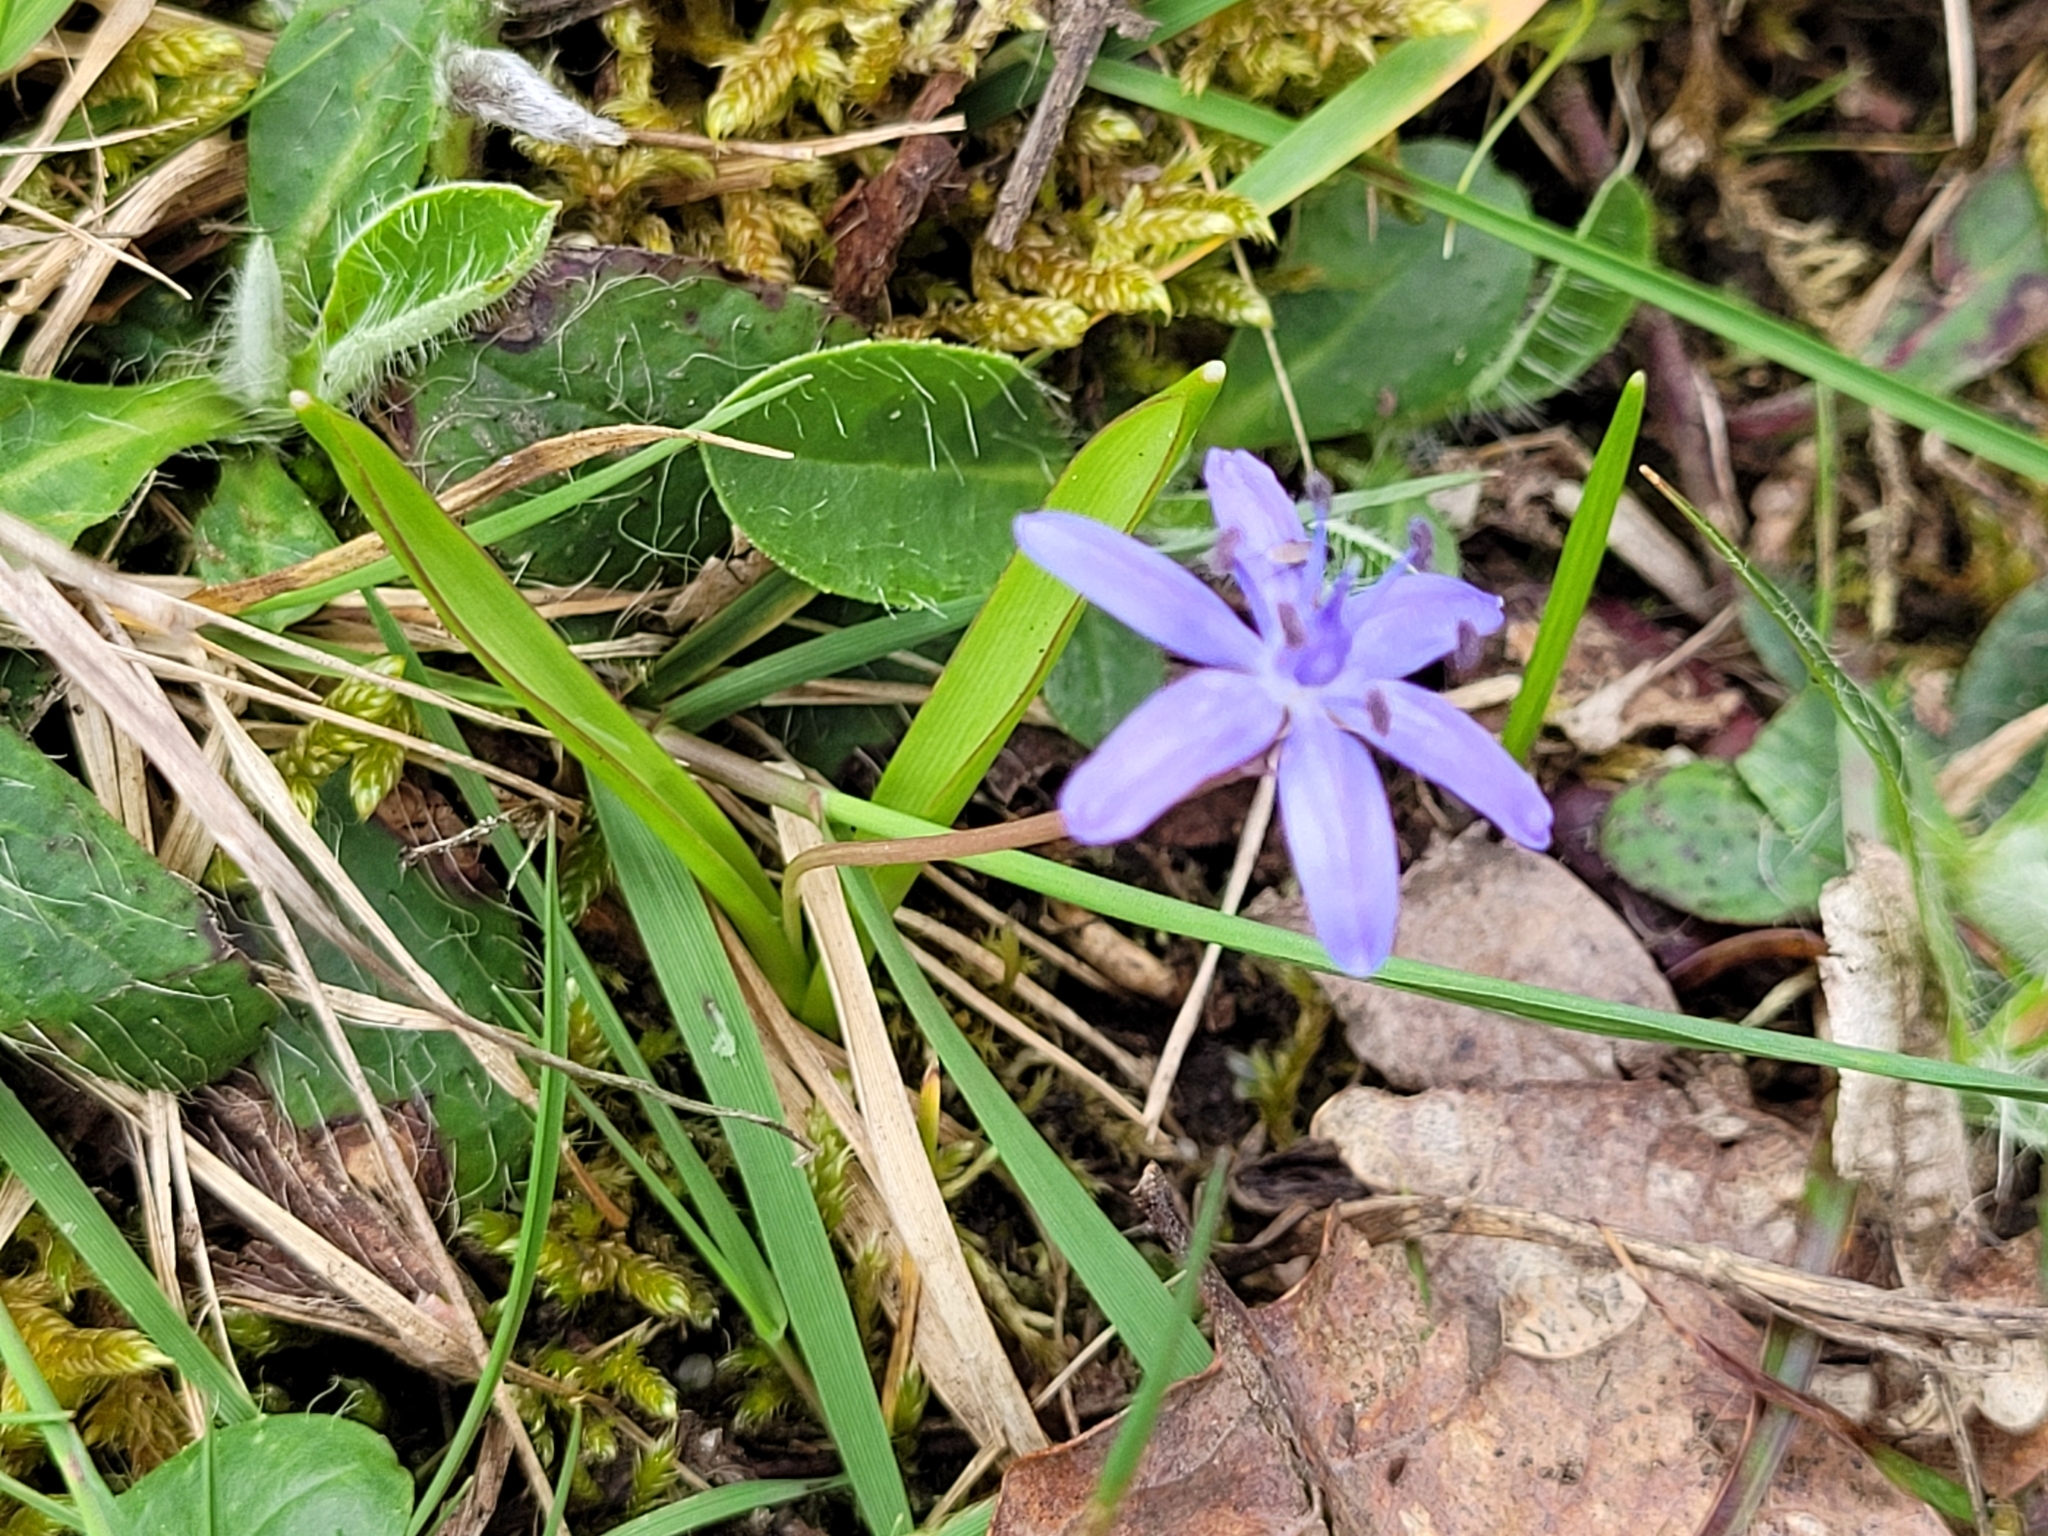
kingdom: Plantae
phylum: Tracheophyta
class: Liliopsida
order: Asparagales
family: Asparagaceae
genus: Scilla
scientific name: Scilla bifolia
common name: Alpine squill
